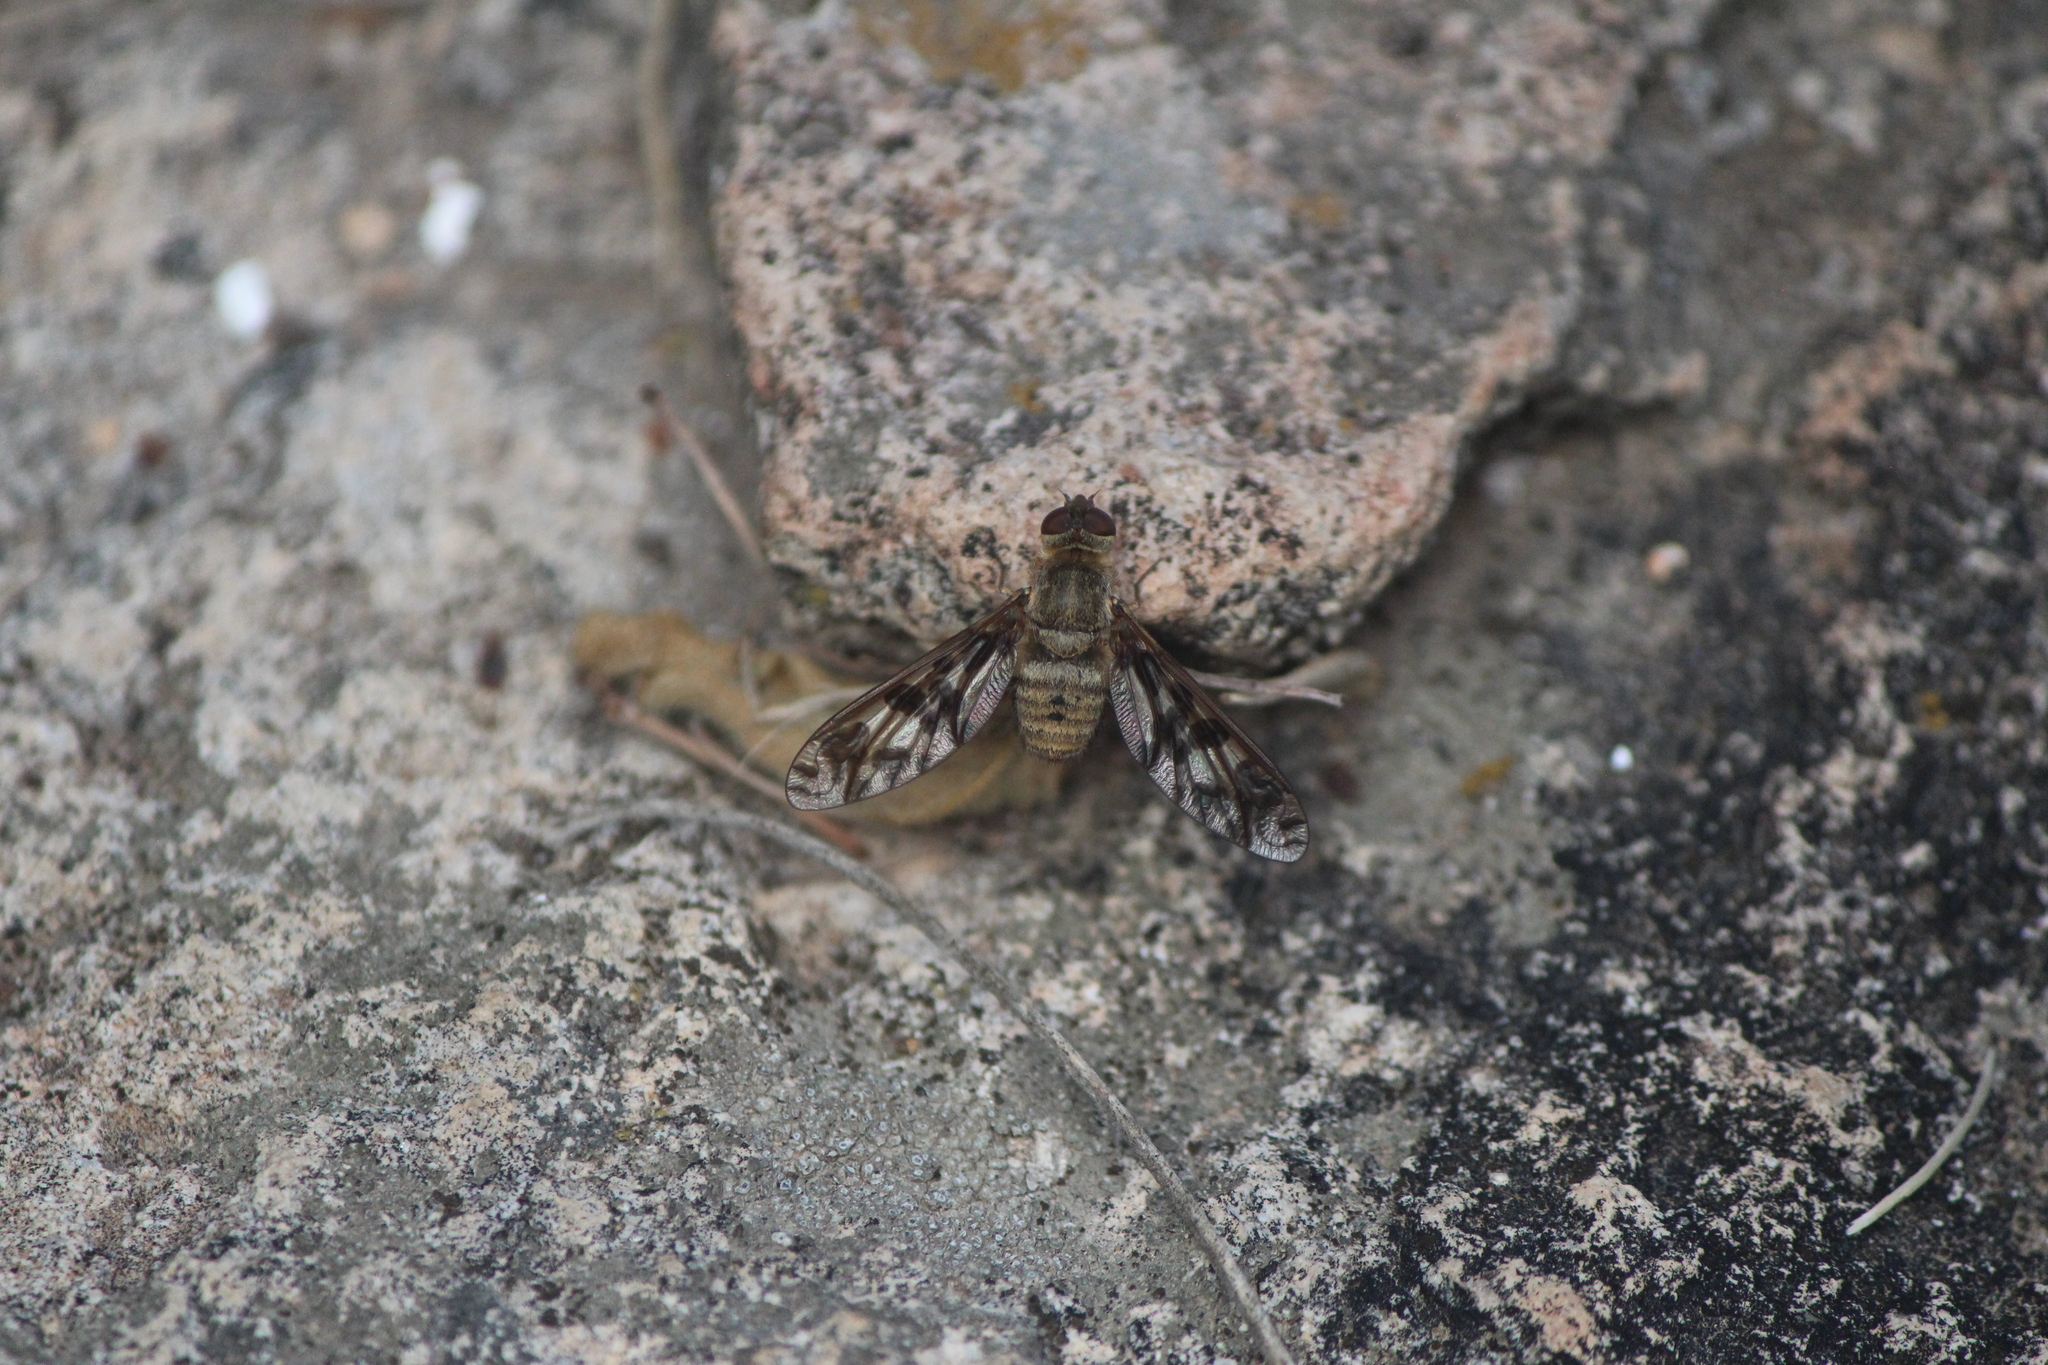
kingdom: Animalia
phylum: Arthropoda
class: Insecta
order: Diptera
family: Bombyliidae
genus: Dipalta
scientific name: Dipalta serpentina
